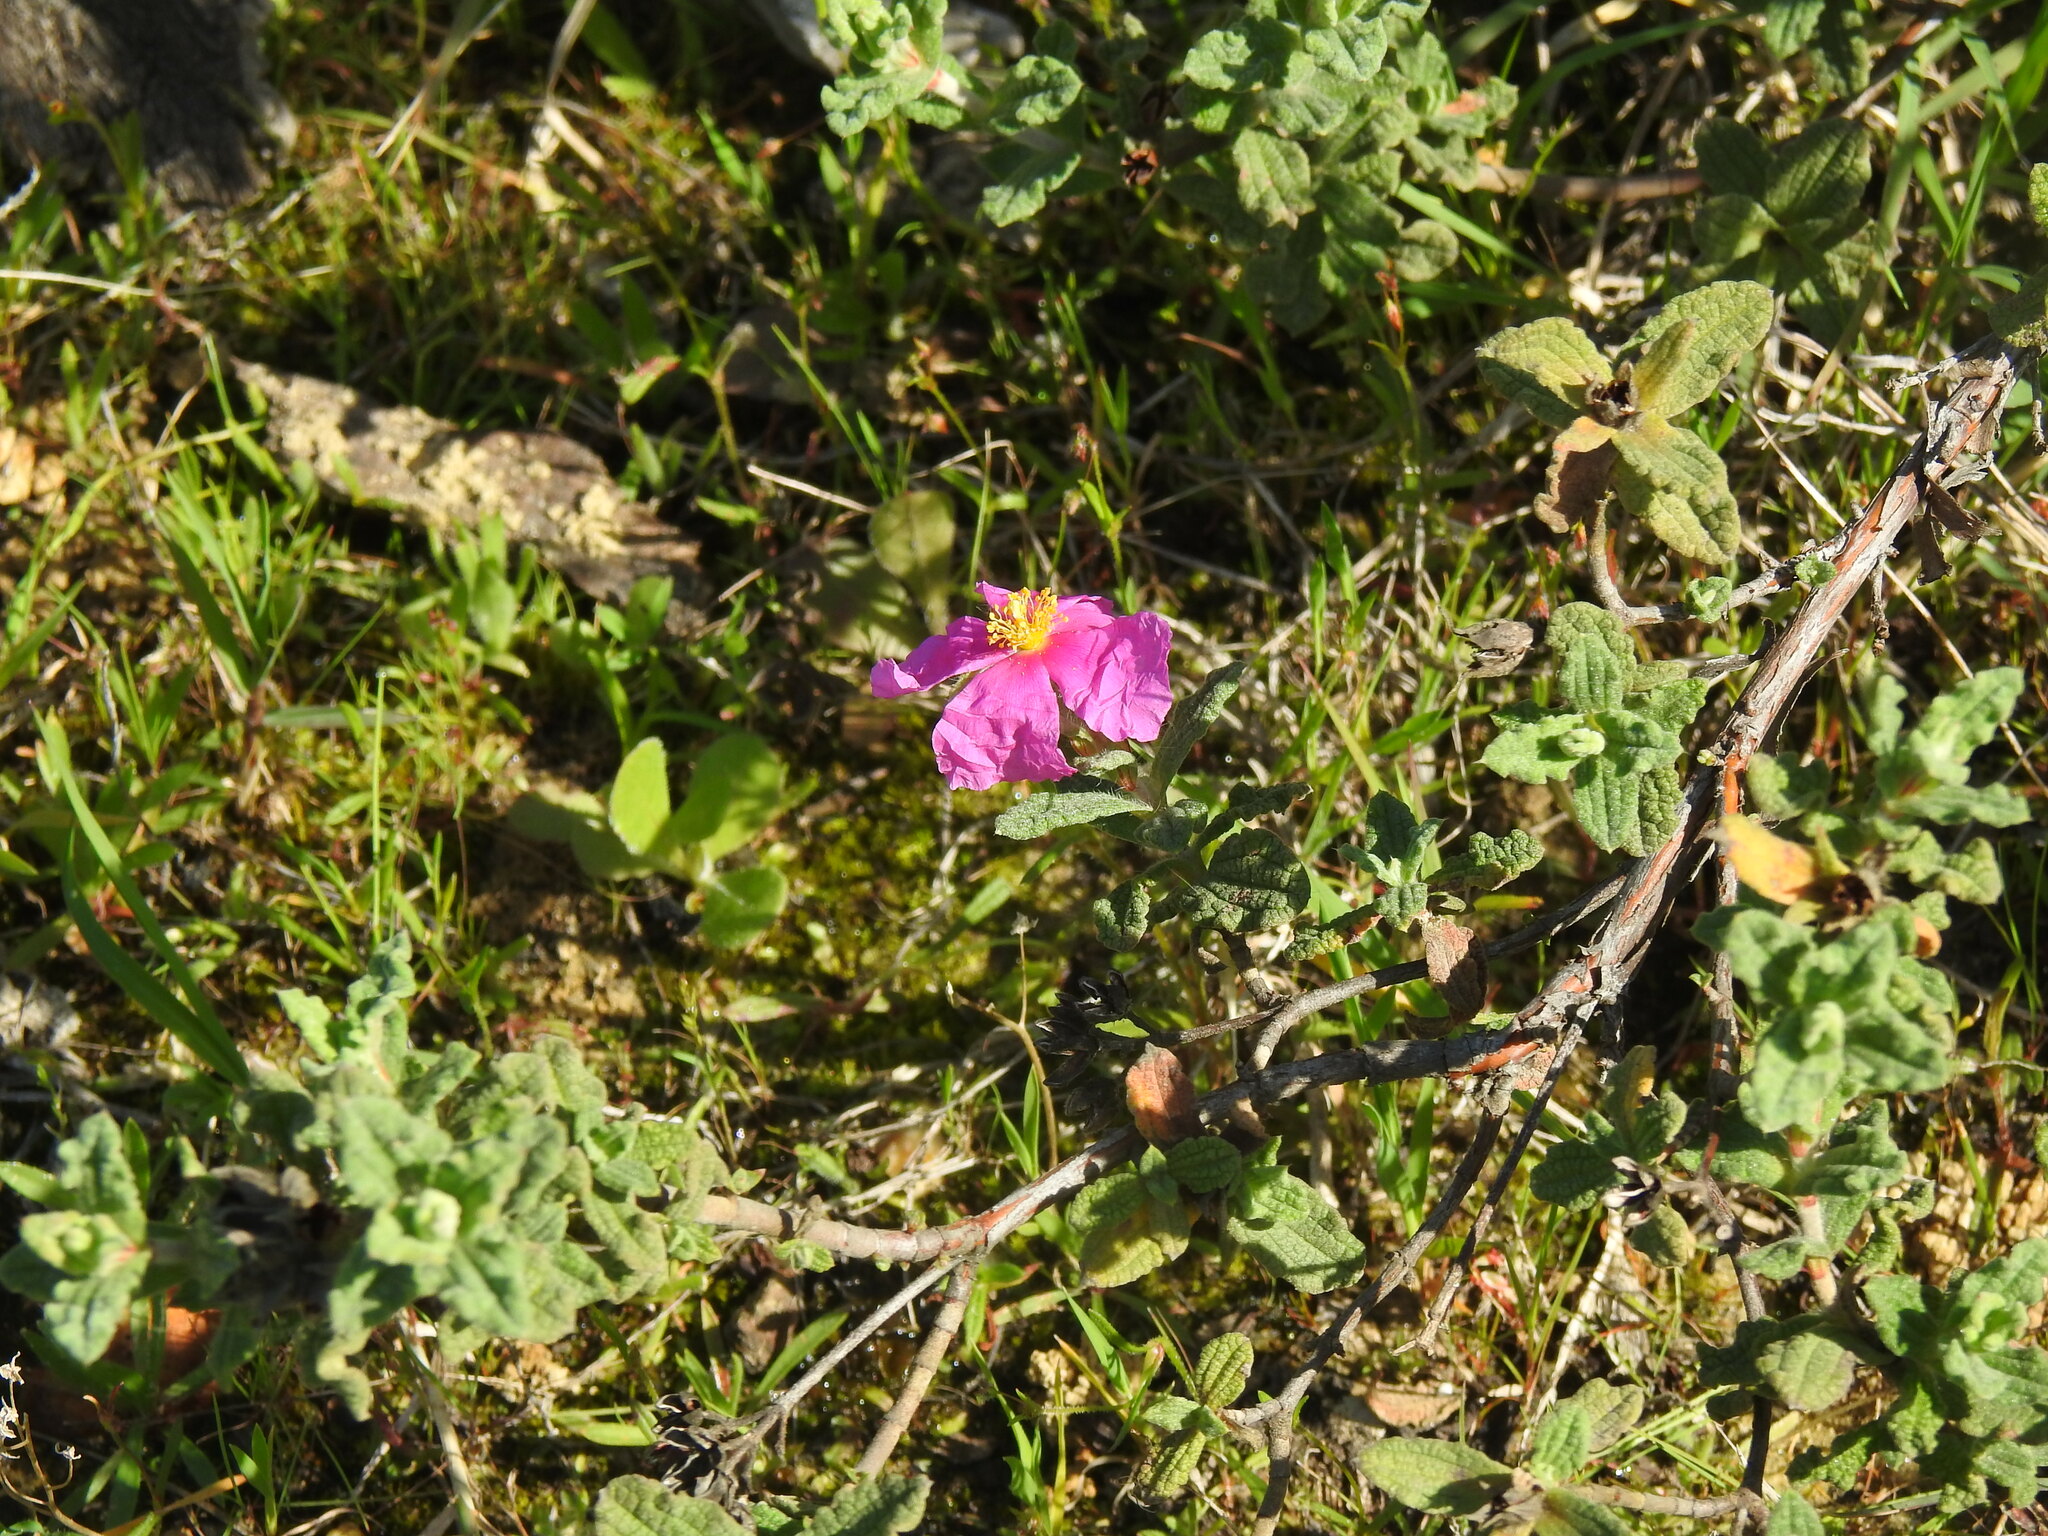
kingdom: Plantae
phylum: Tracheophyta
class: Magnoliopsida
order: Malvales
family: Cistaceae
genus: Cistus
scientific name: Cistus crispus
